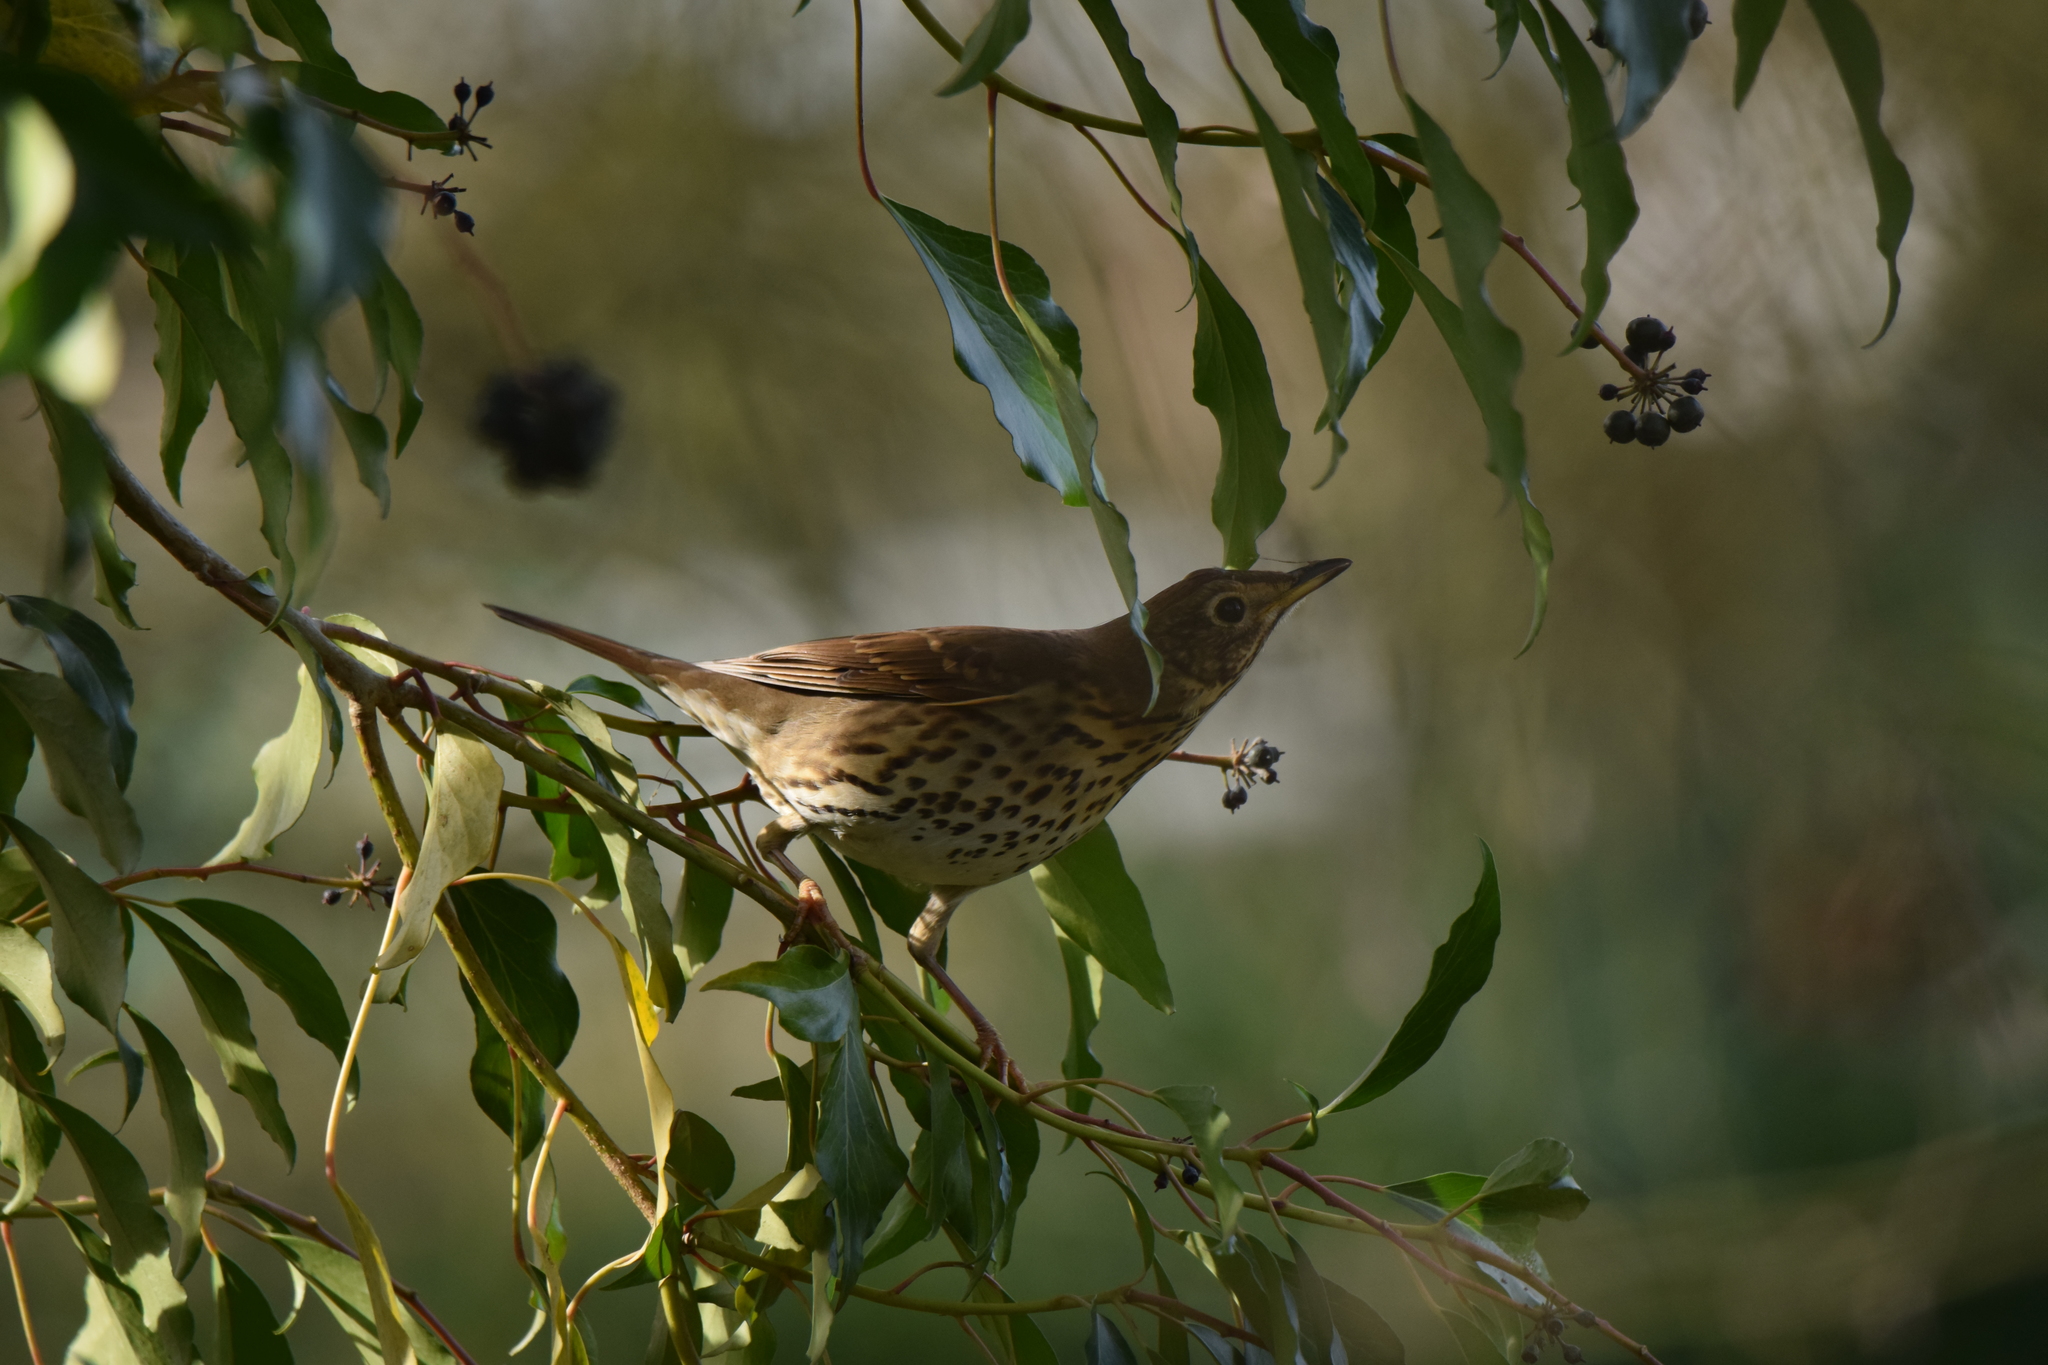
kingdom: Animalia
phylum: Chordata
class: Aves
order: Passeriformes
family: Turdidae
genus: Turdus
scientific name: Turdus philomelos
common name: Song thrush
